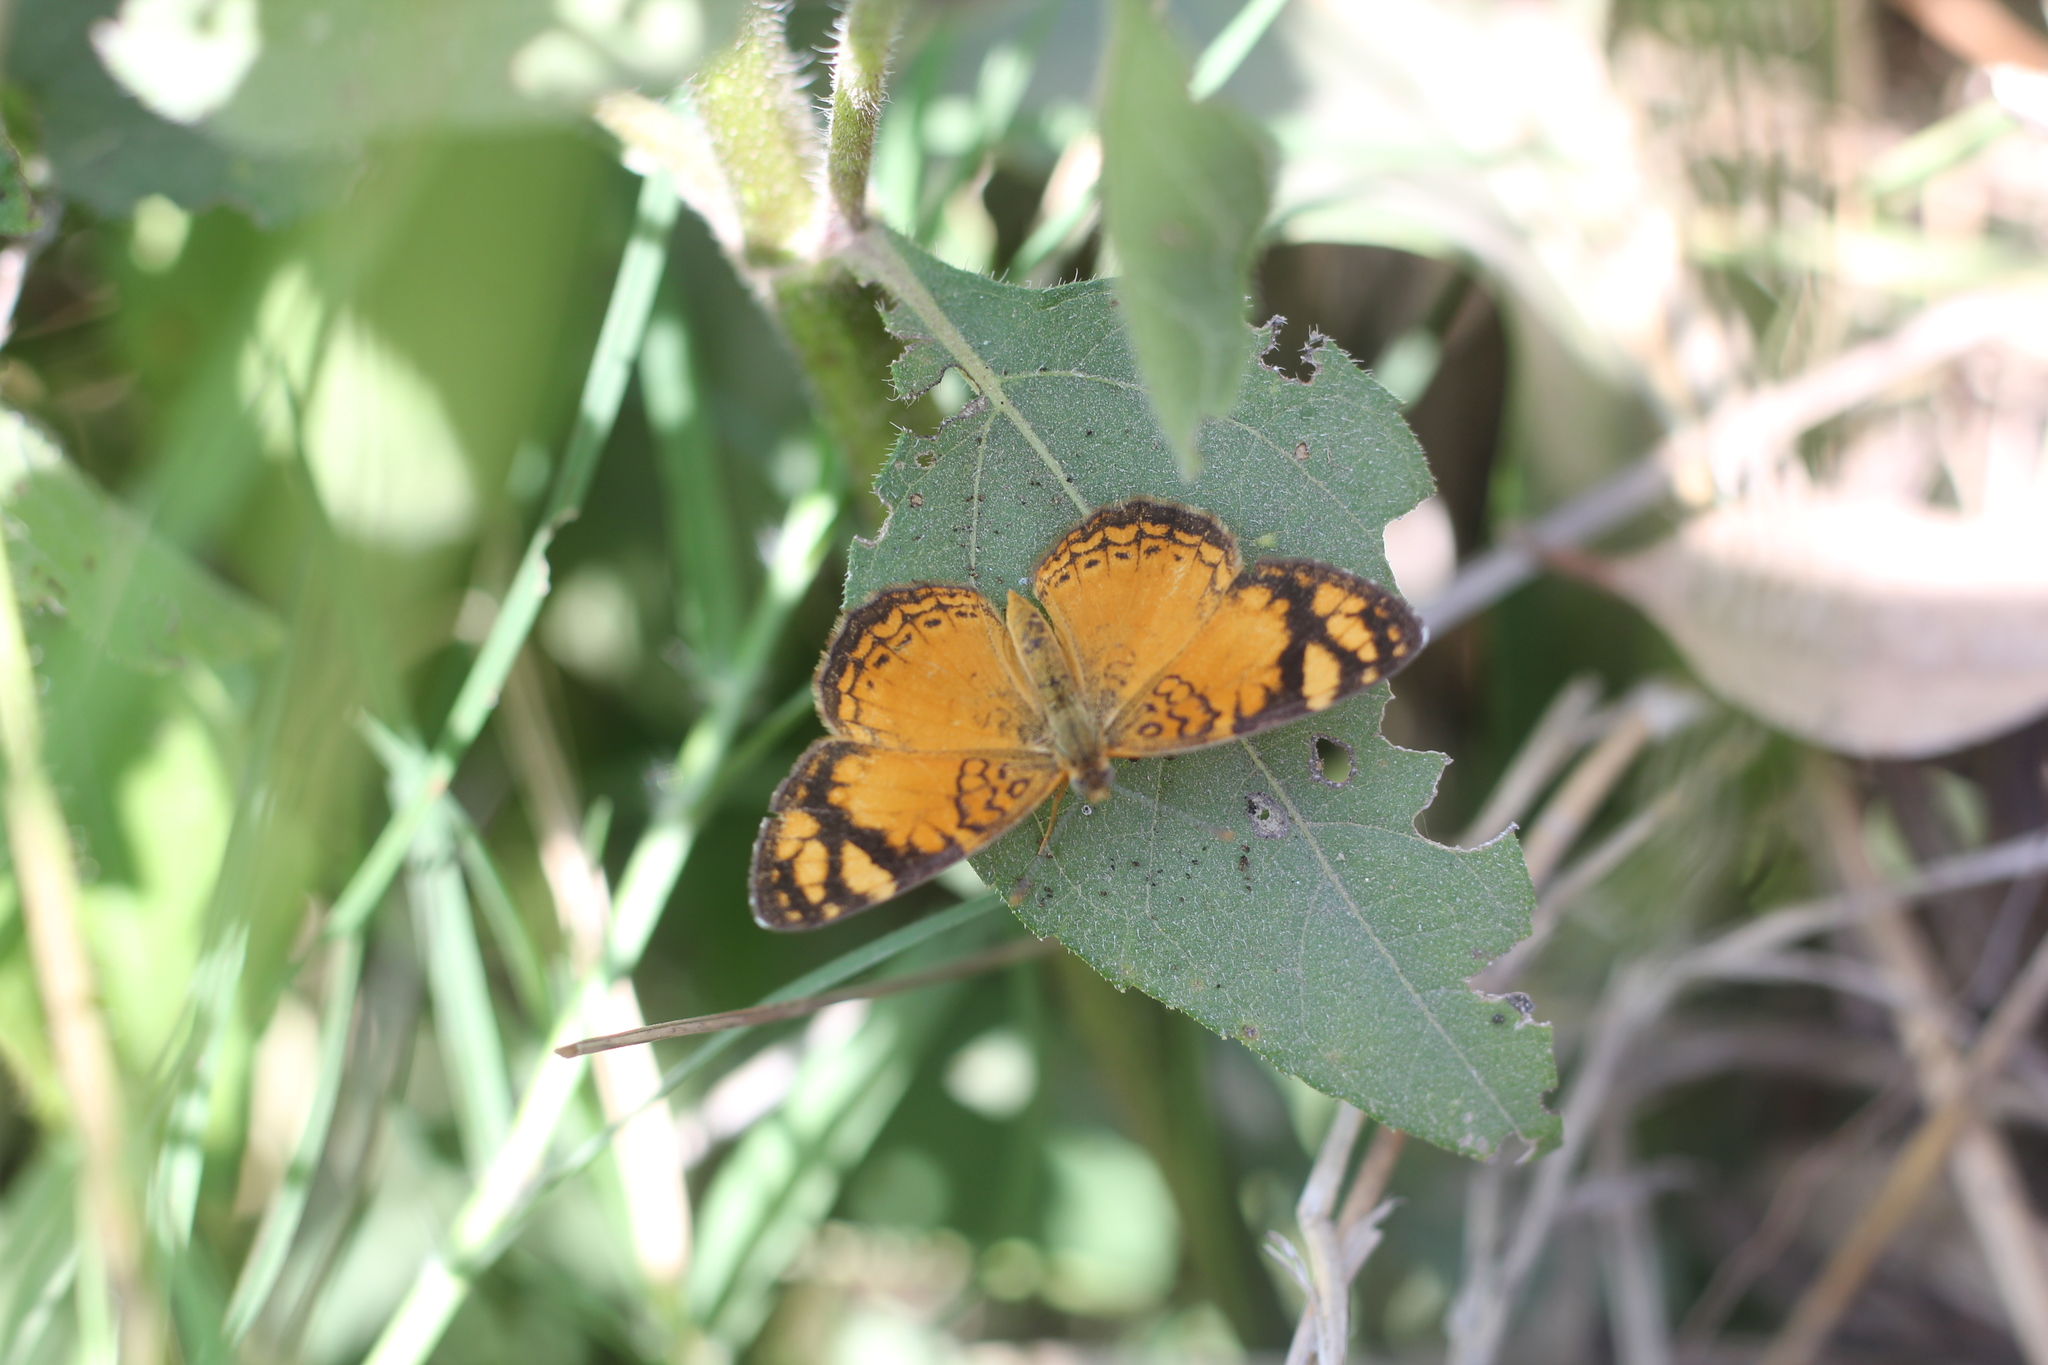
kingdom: Animalia
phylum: Arthropoda
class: Insecta
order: Lepidoptera
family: Nymphalidae
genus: Tegosa
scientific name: Tegosa orobia
